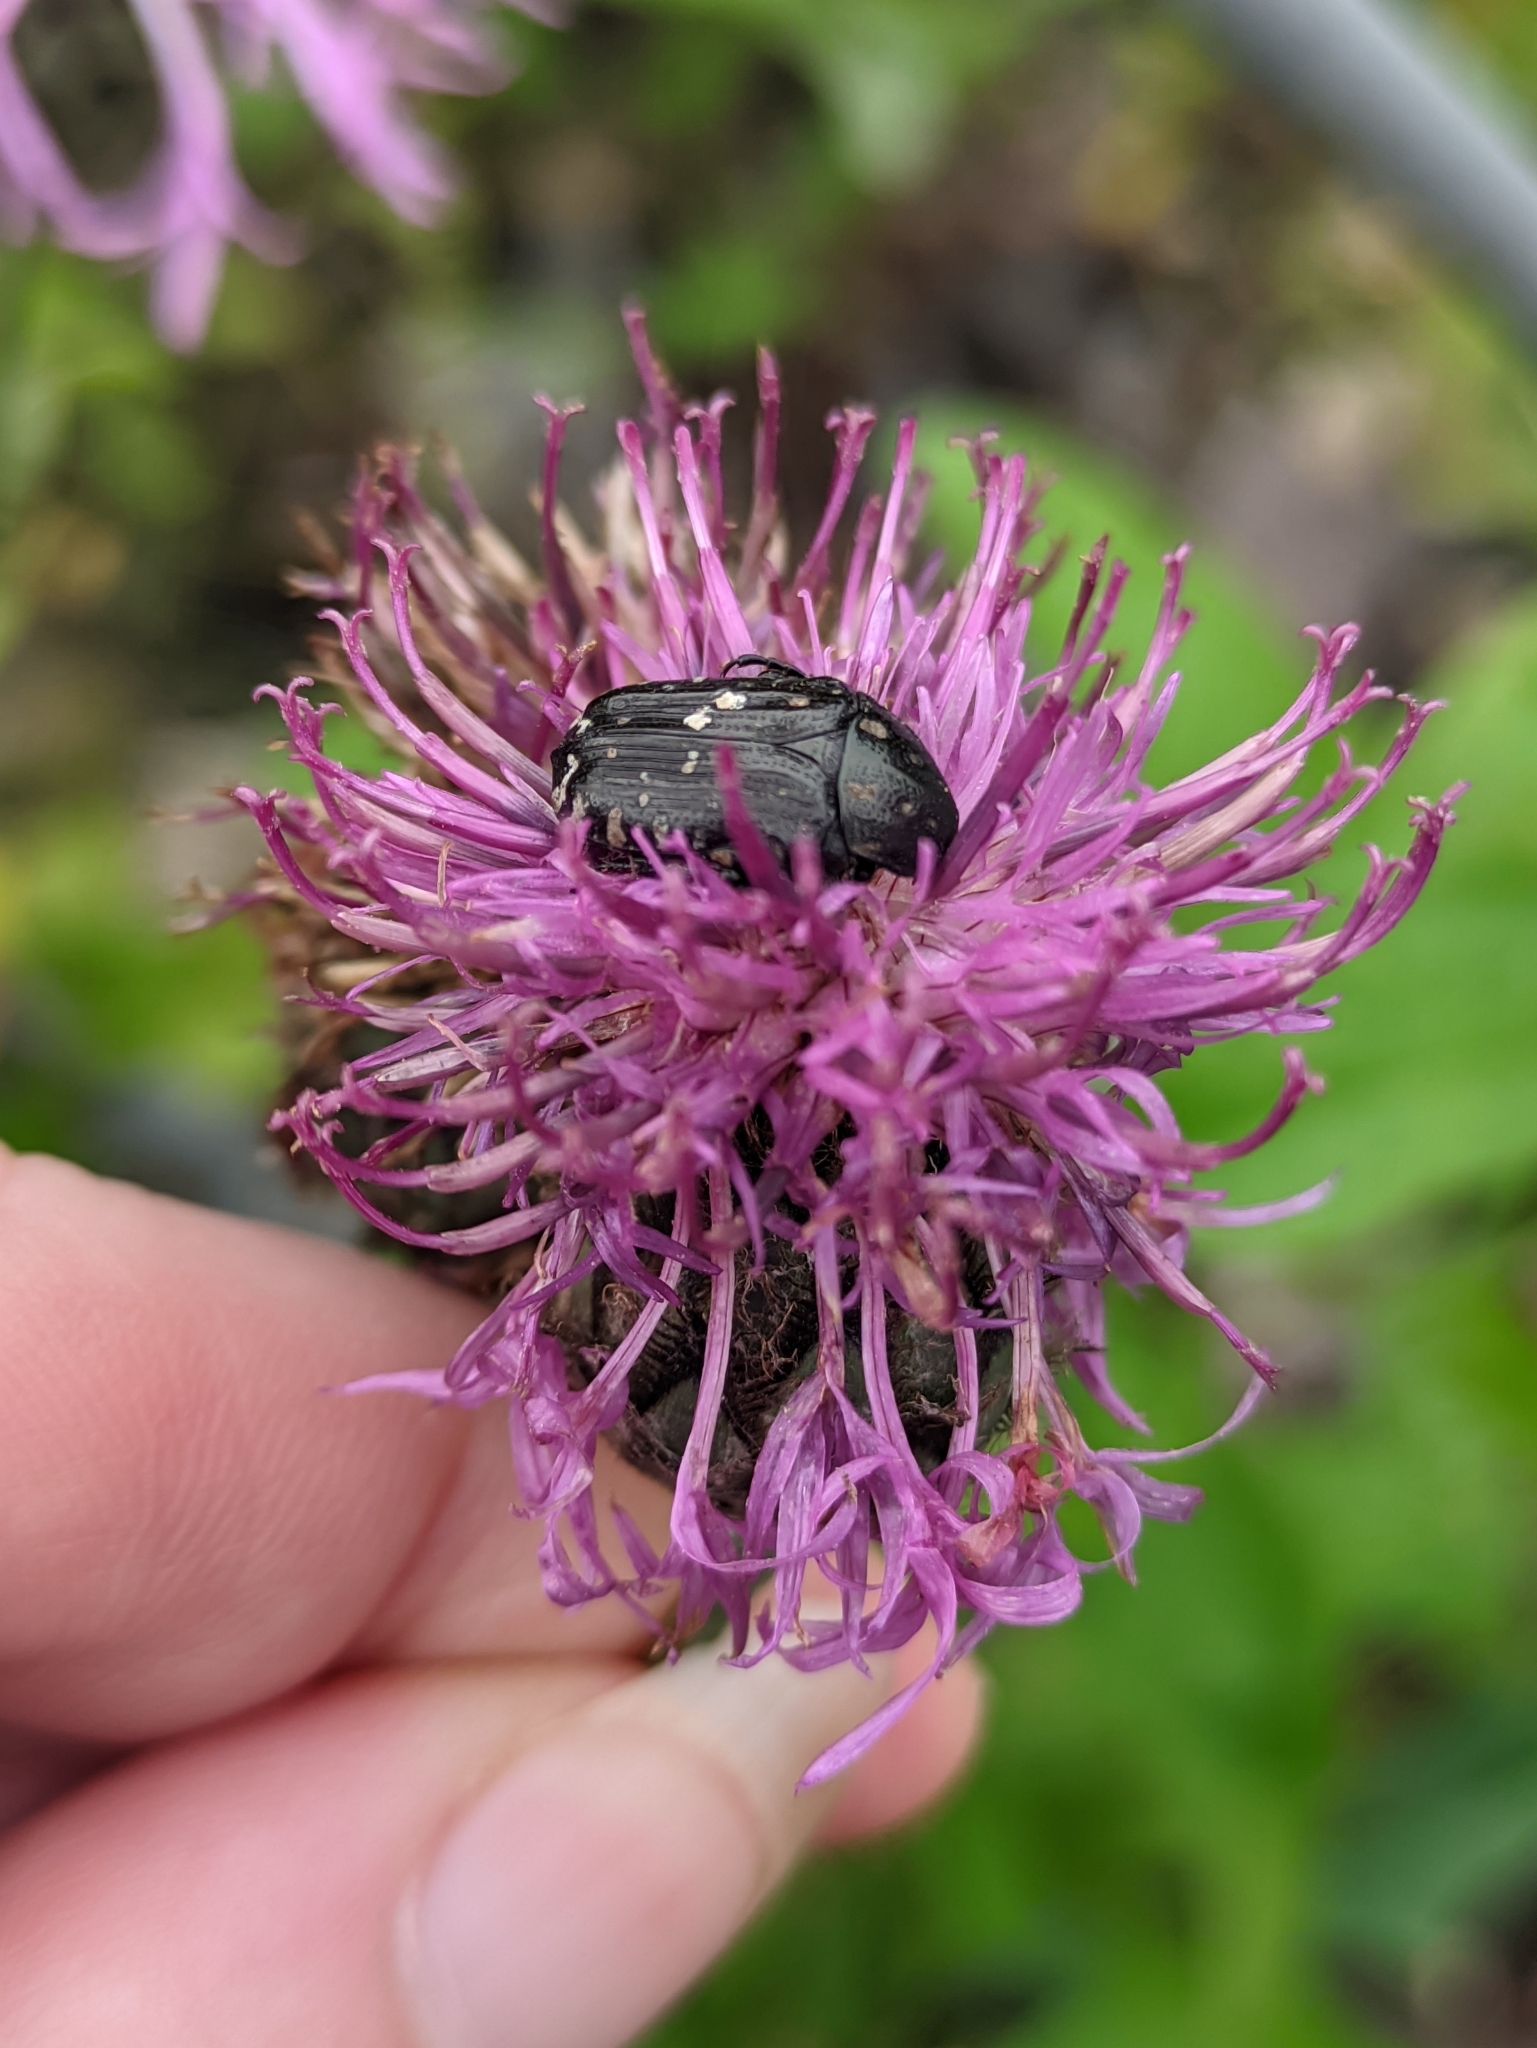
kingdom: Animalia
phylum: Arthropoda
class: Insecta
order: Coleoptera
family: Scarabaeidae
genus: Oxythyrea
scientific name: Oxythyrea funesta
